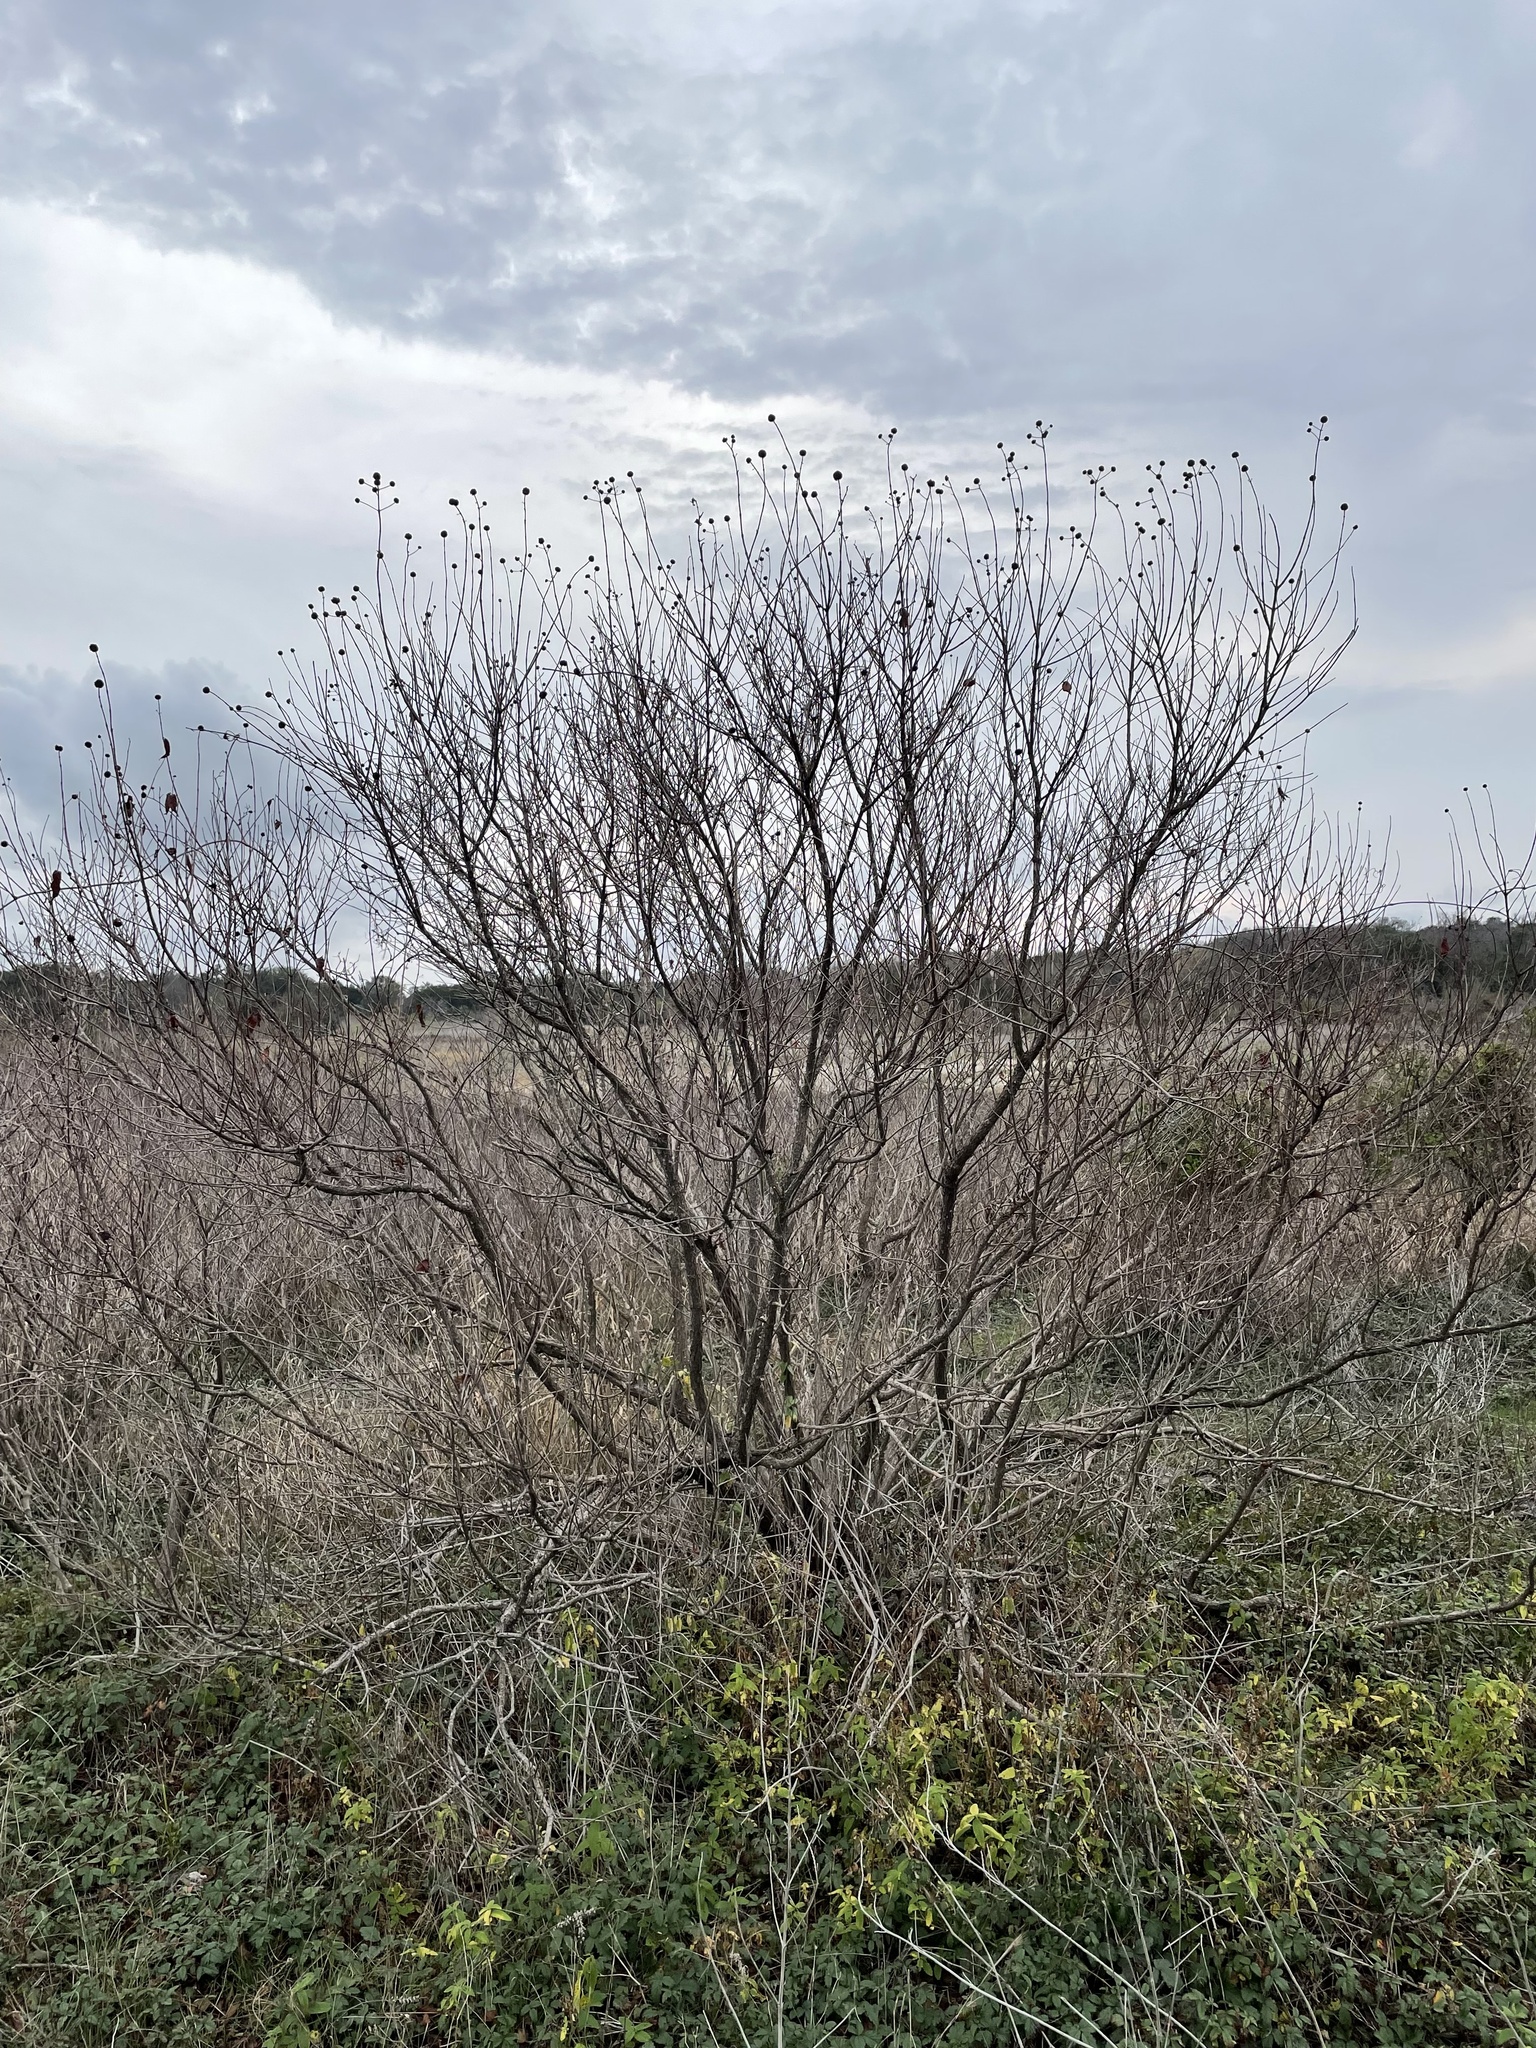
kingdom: Plantae
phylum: Tracheophyta
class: Magnoliopsida
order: Gentianales
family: Rubiaceae
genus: Cephalanthus
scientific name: Cephalanthus occidentalis
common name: Button-willow
